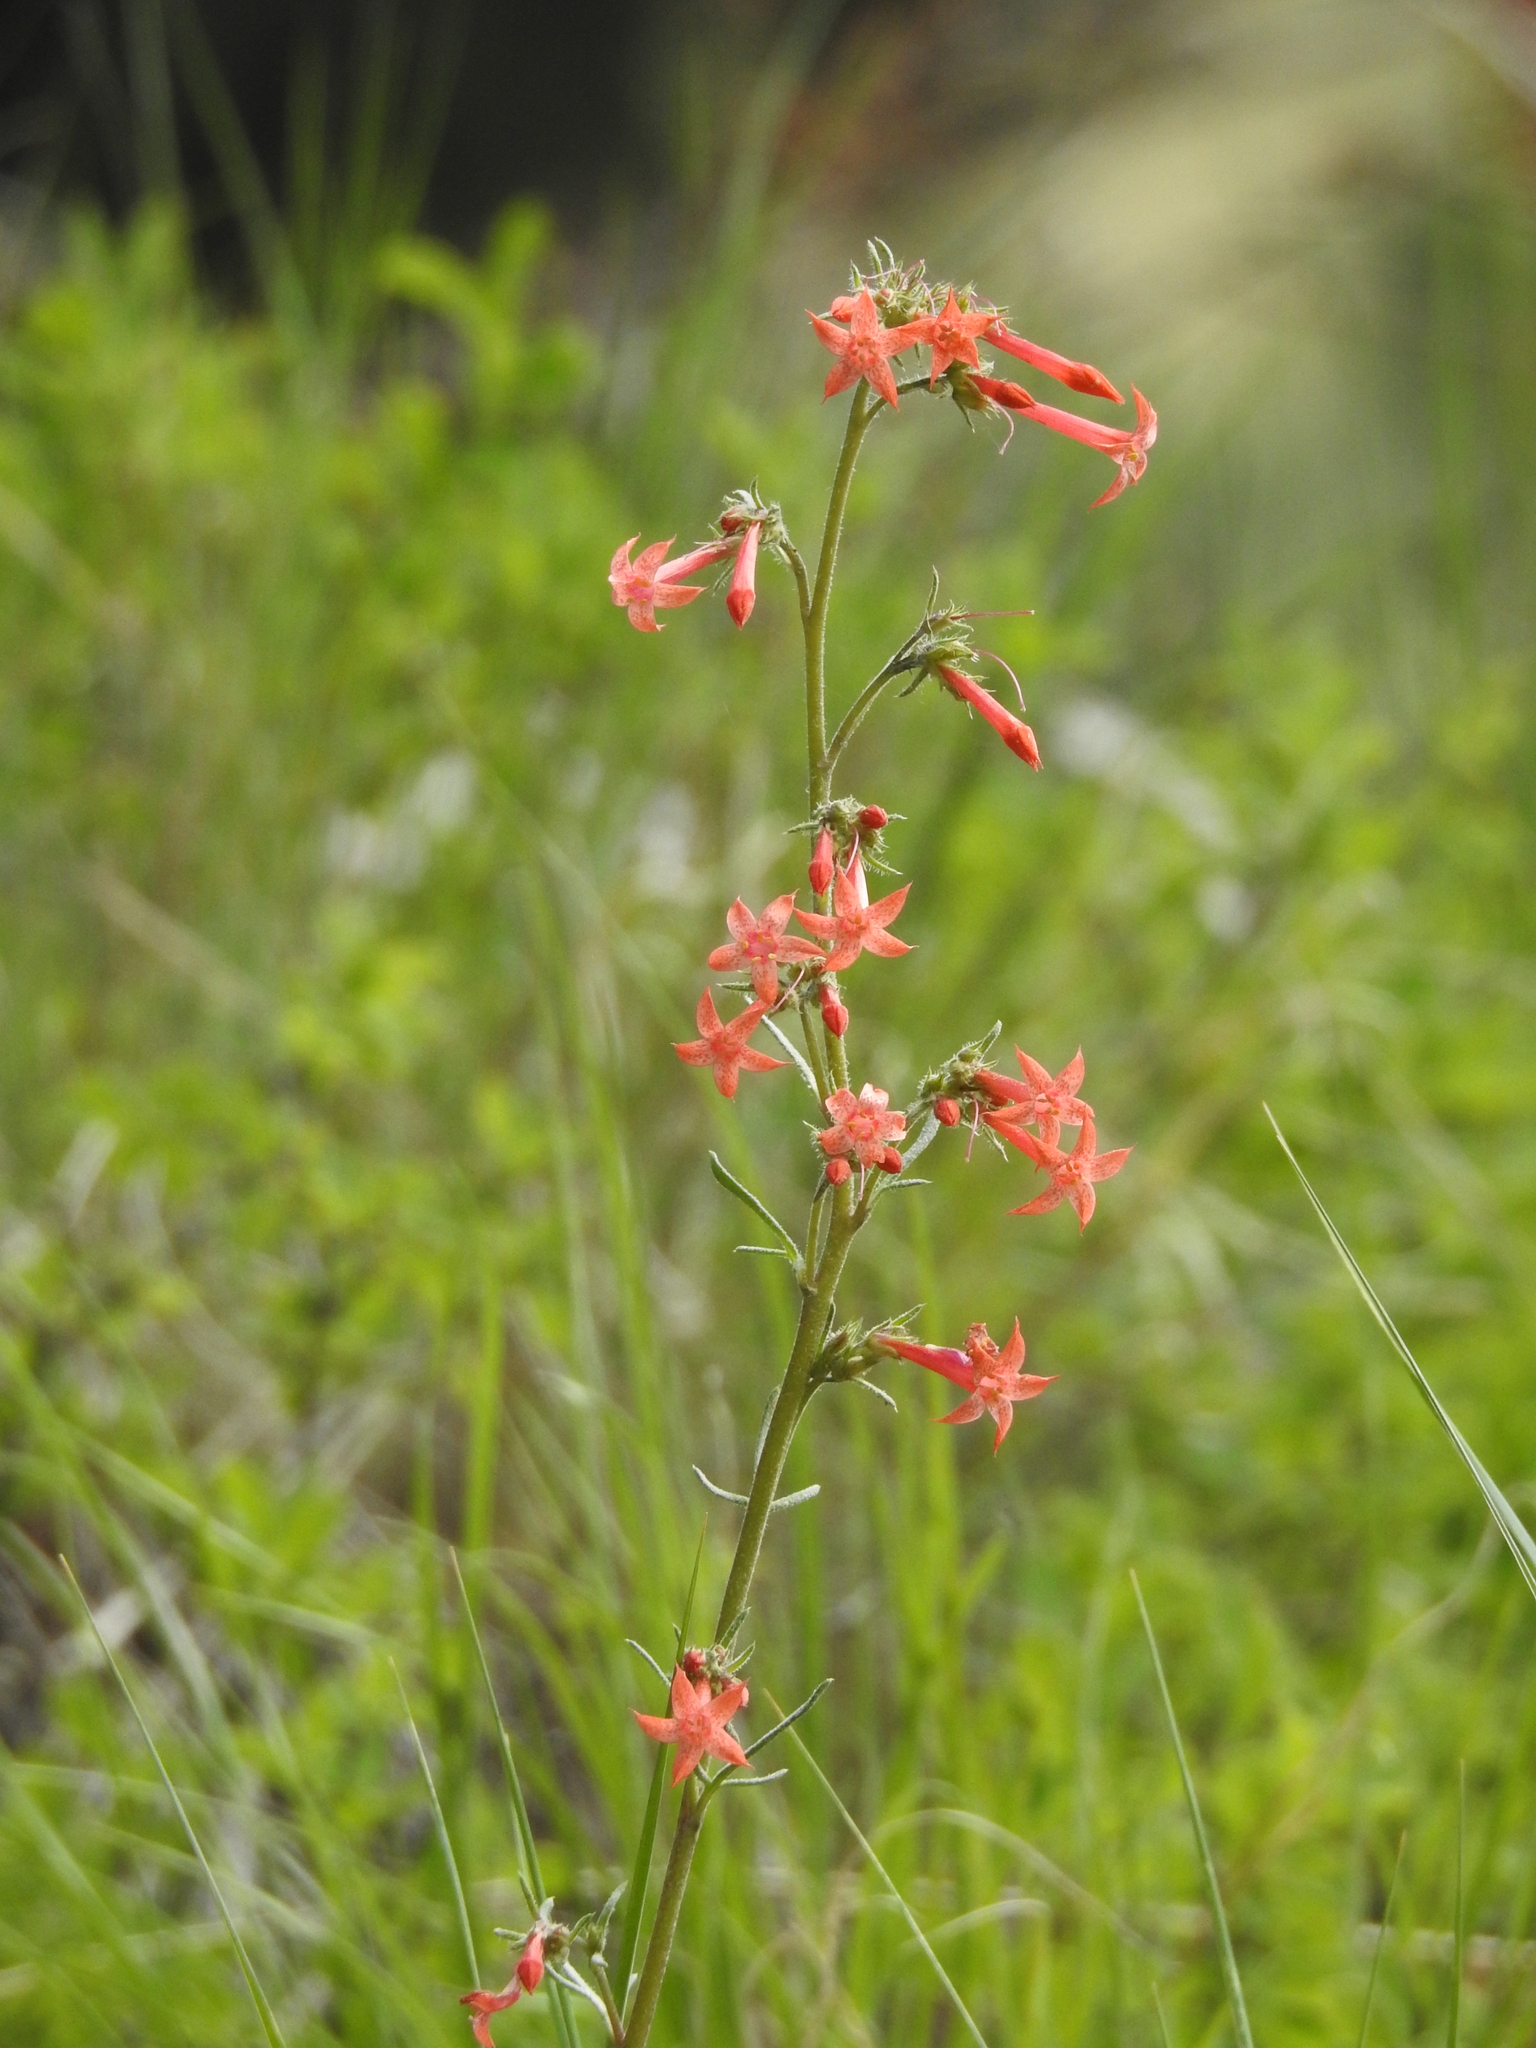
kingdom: Plantae
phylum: Tracheophyta
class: Magnoliopsida
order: Ericales
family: Polemoniaceae
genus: Ipomopsis
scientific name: Ipomopsis aggregata
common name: Scarlet gilia
